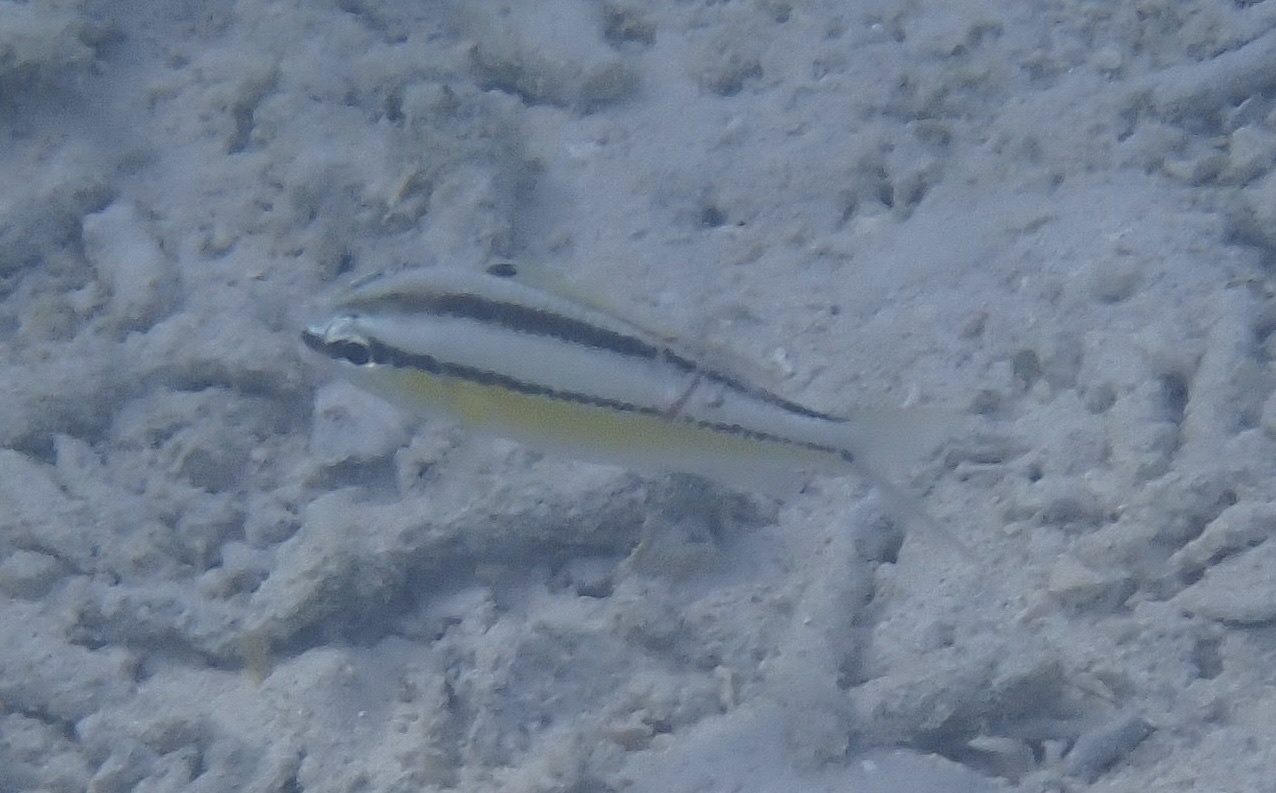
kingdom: Animalia
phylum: Chordata
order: Perciformes
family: Nemipteridae
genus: Scolopsis
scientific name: Scolopsis margaritifera
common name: Pearly monocle bream
